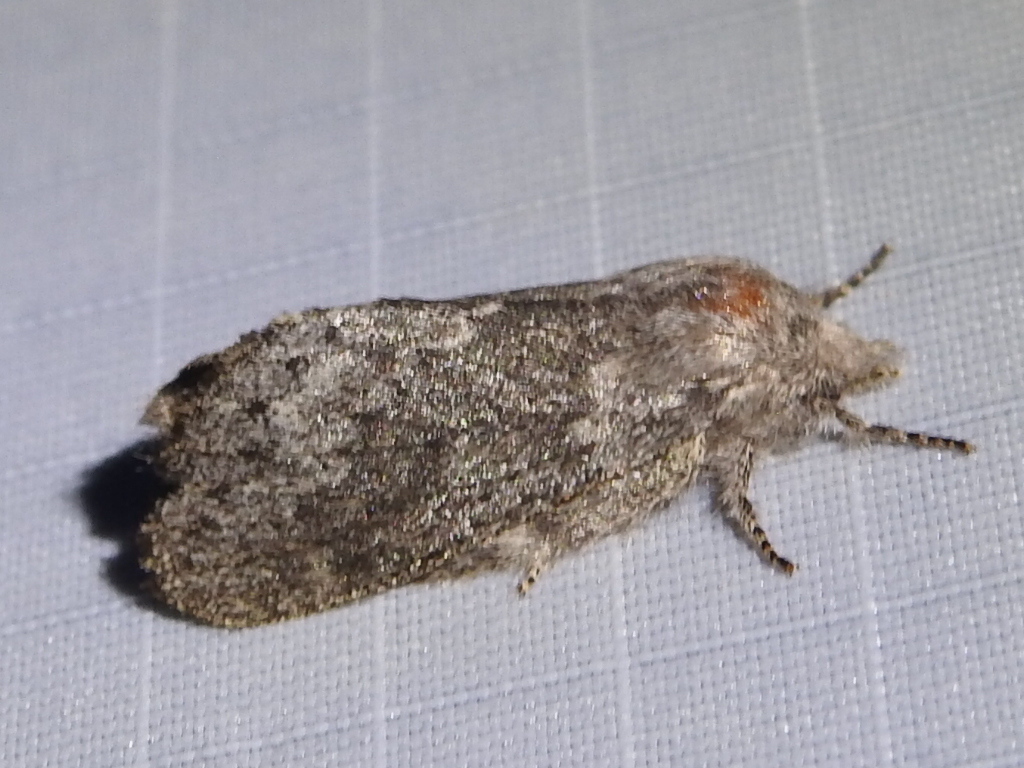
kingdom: Animalia
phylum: Arthropoda
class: Insecta
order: Lepidoptera
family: Lasiocampidae
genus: Heteropacha
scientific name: Heteropacha rileyana
